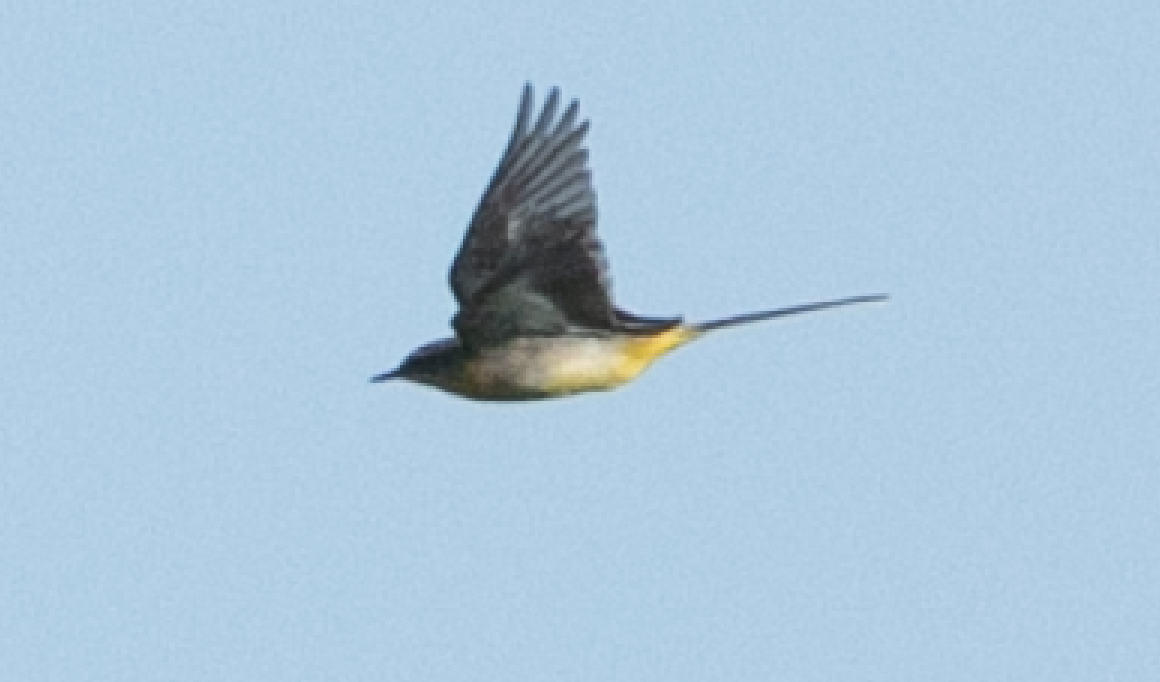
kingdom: Animalia
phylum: Chordata
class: Aves
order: Passeriformes
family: Motacillidae
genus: Motacilla
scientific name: Motacilla cinerea
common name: Grey wagtail
